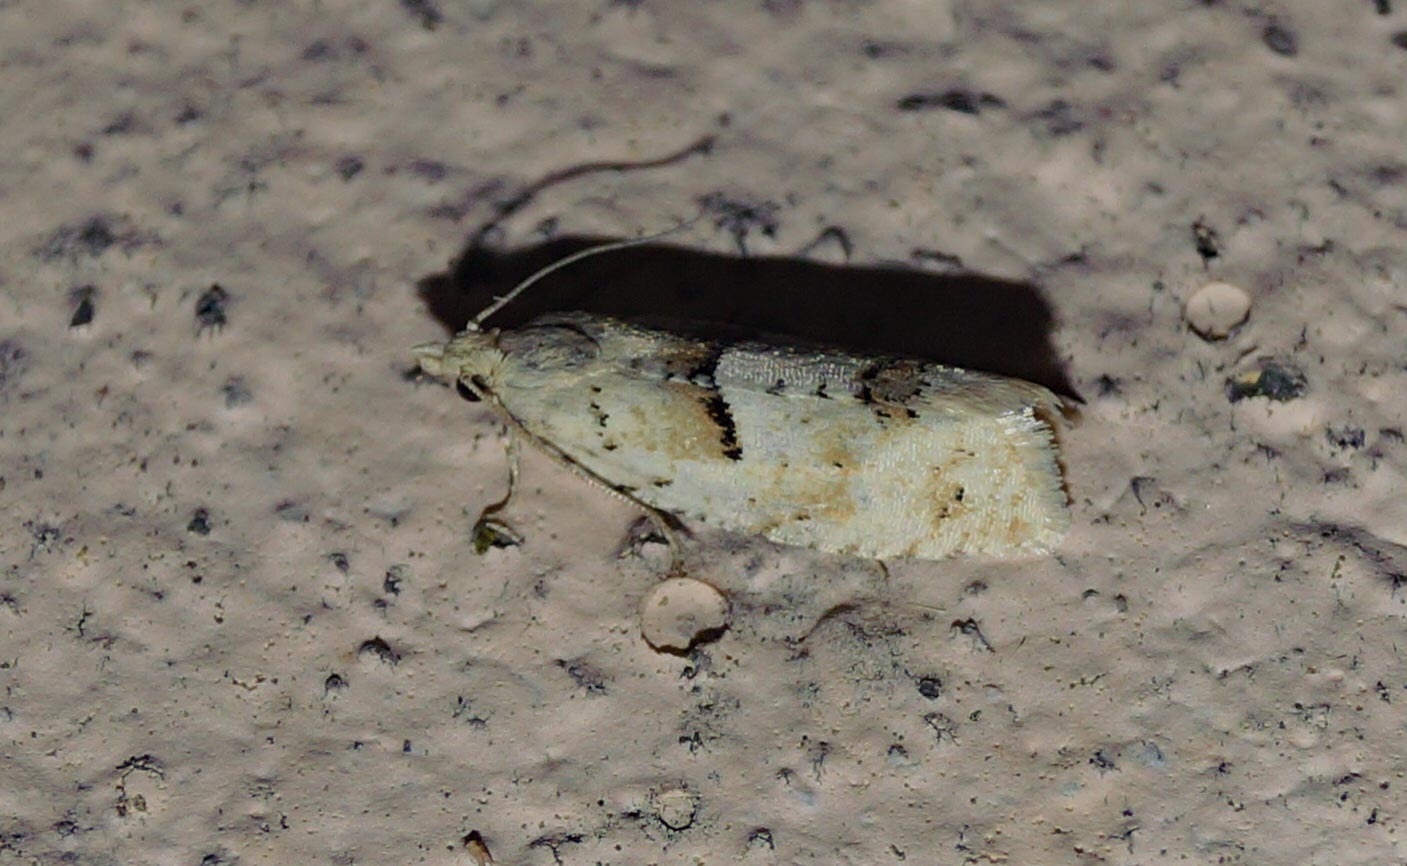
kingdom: Animalia
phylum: Arthropoda
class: Insecta
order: Lepidoptera
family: Tortricidae
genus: Epinotia
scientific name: Epinotia bilunana
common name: Crescent bell
